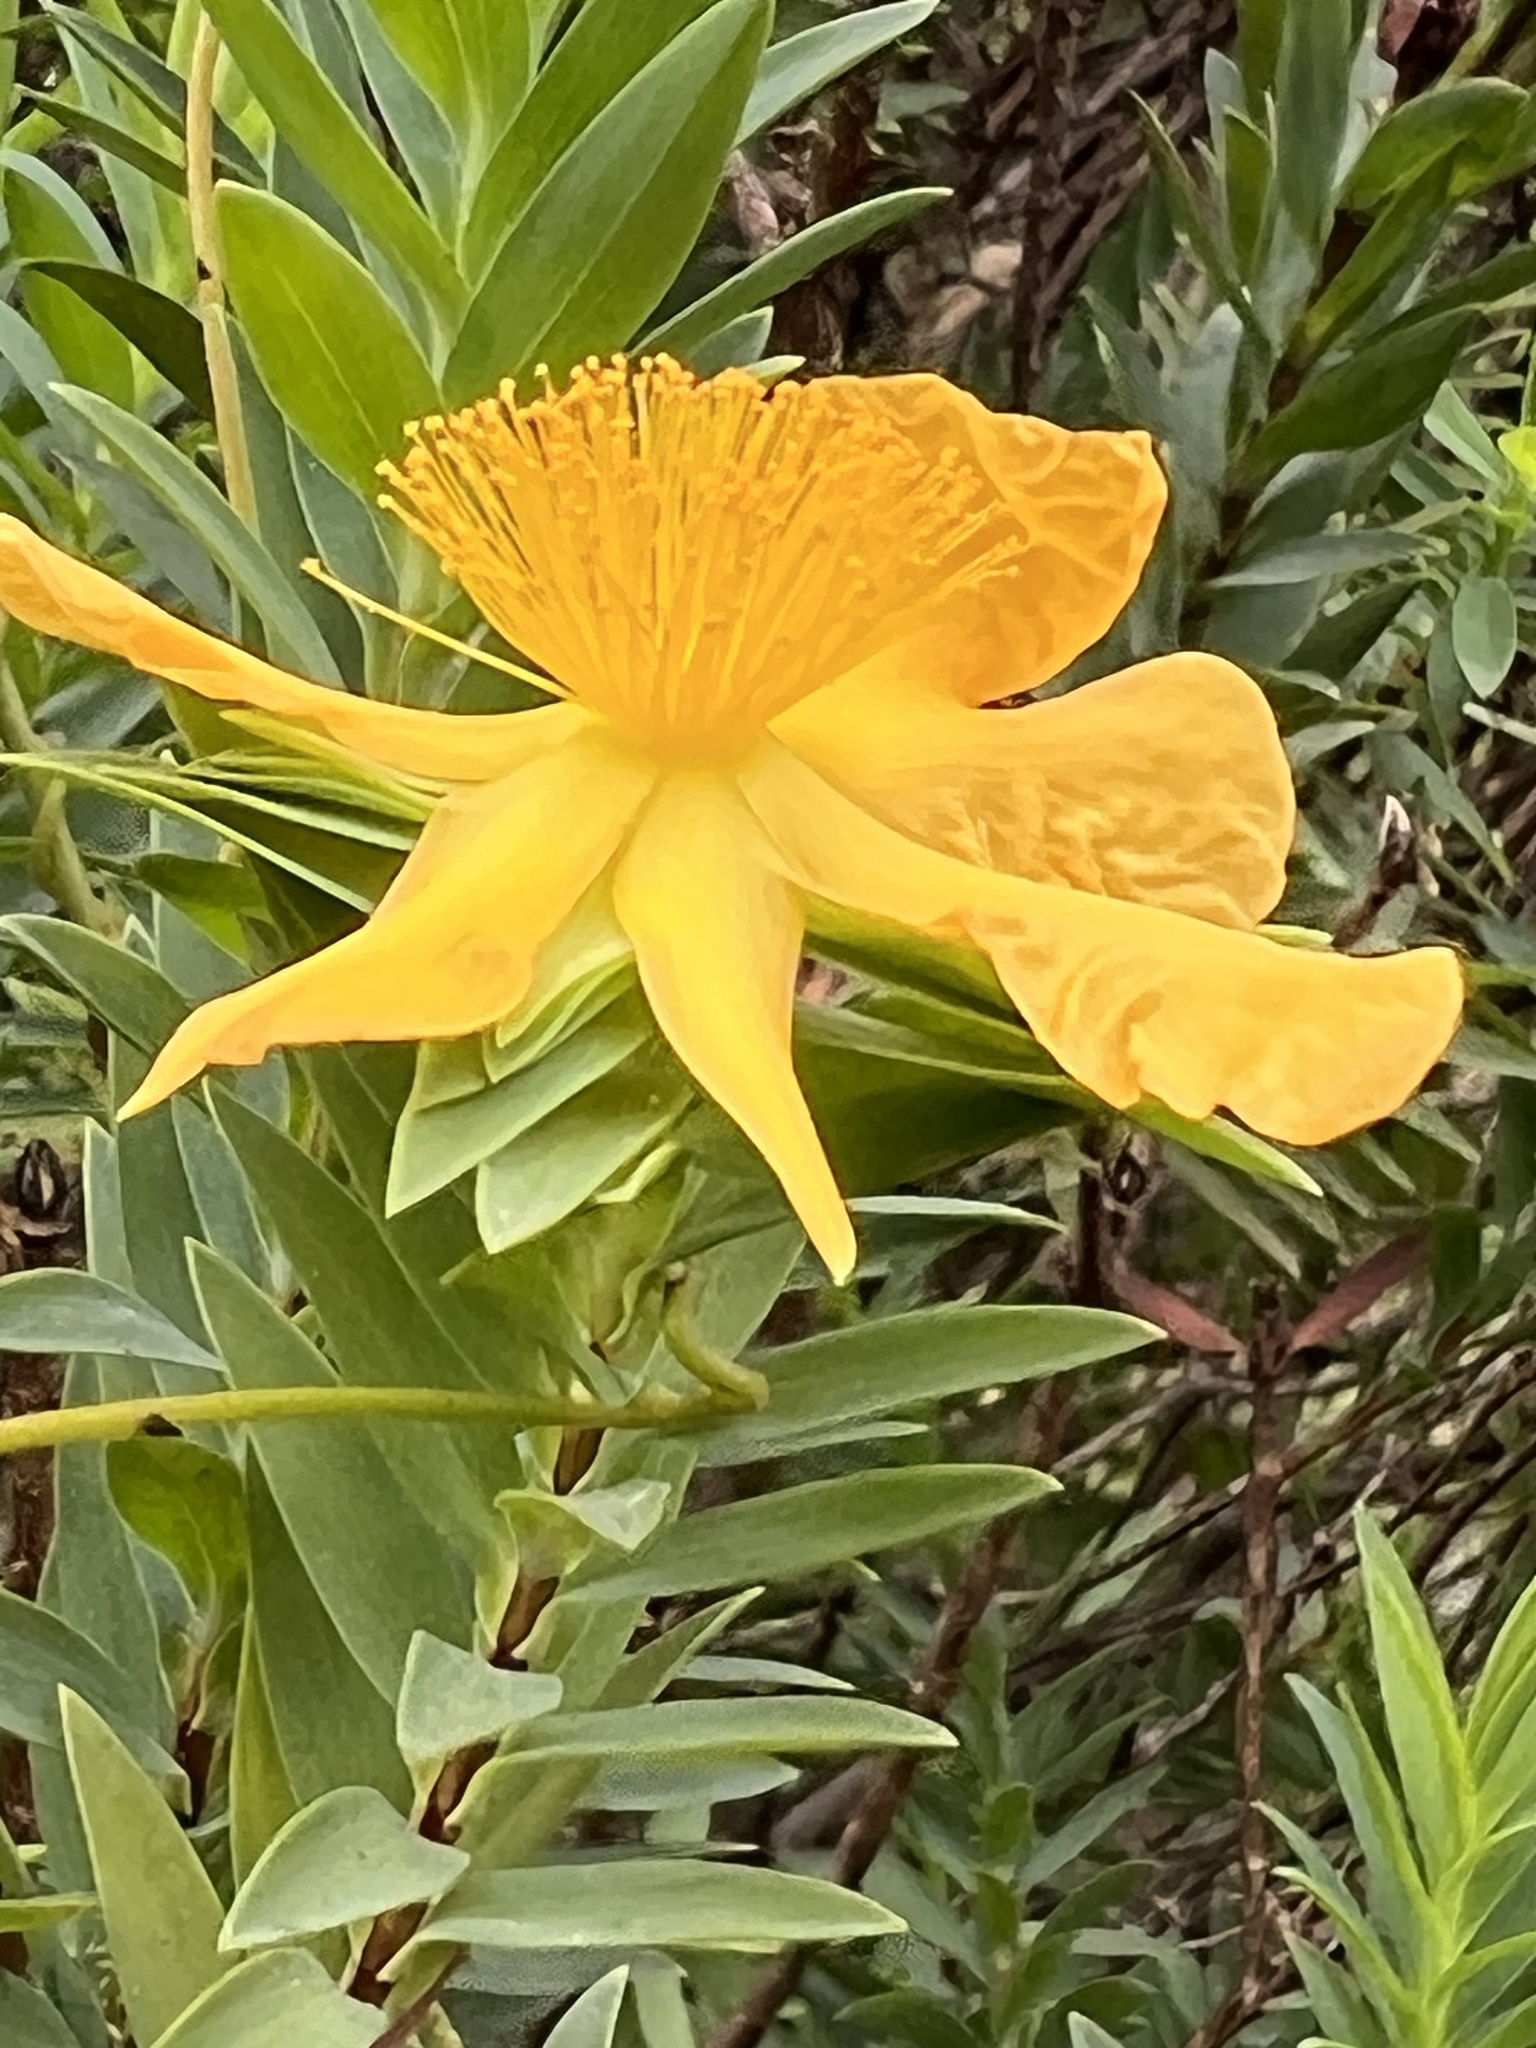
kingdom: Plantae
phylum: Tracheophyta
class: Magnoliopsida
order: Malpighiales
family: Hypericaceae
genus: Hypericum
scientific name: Hypericum styphelioides
